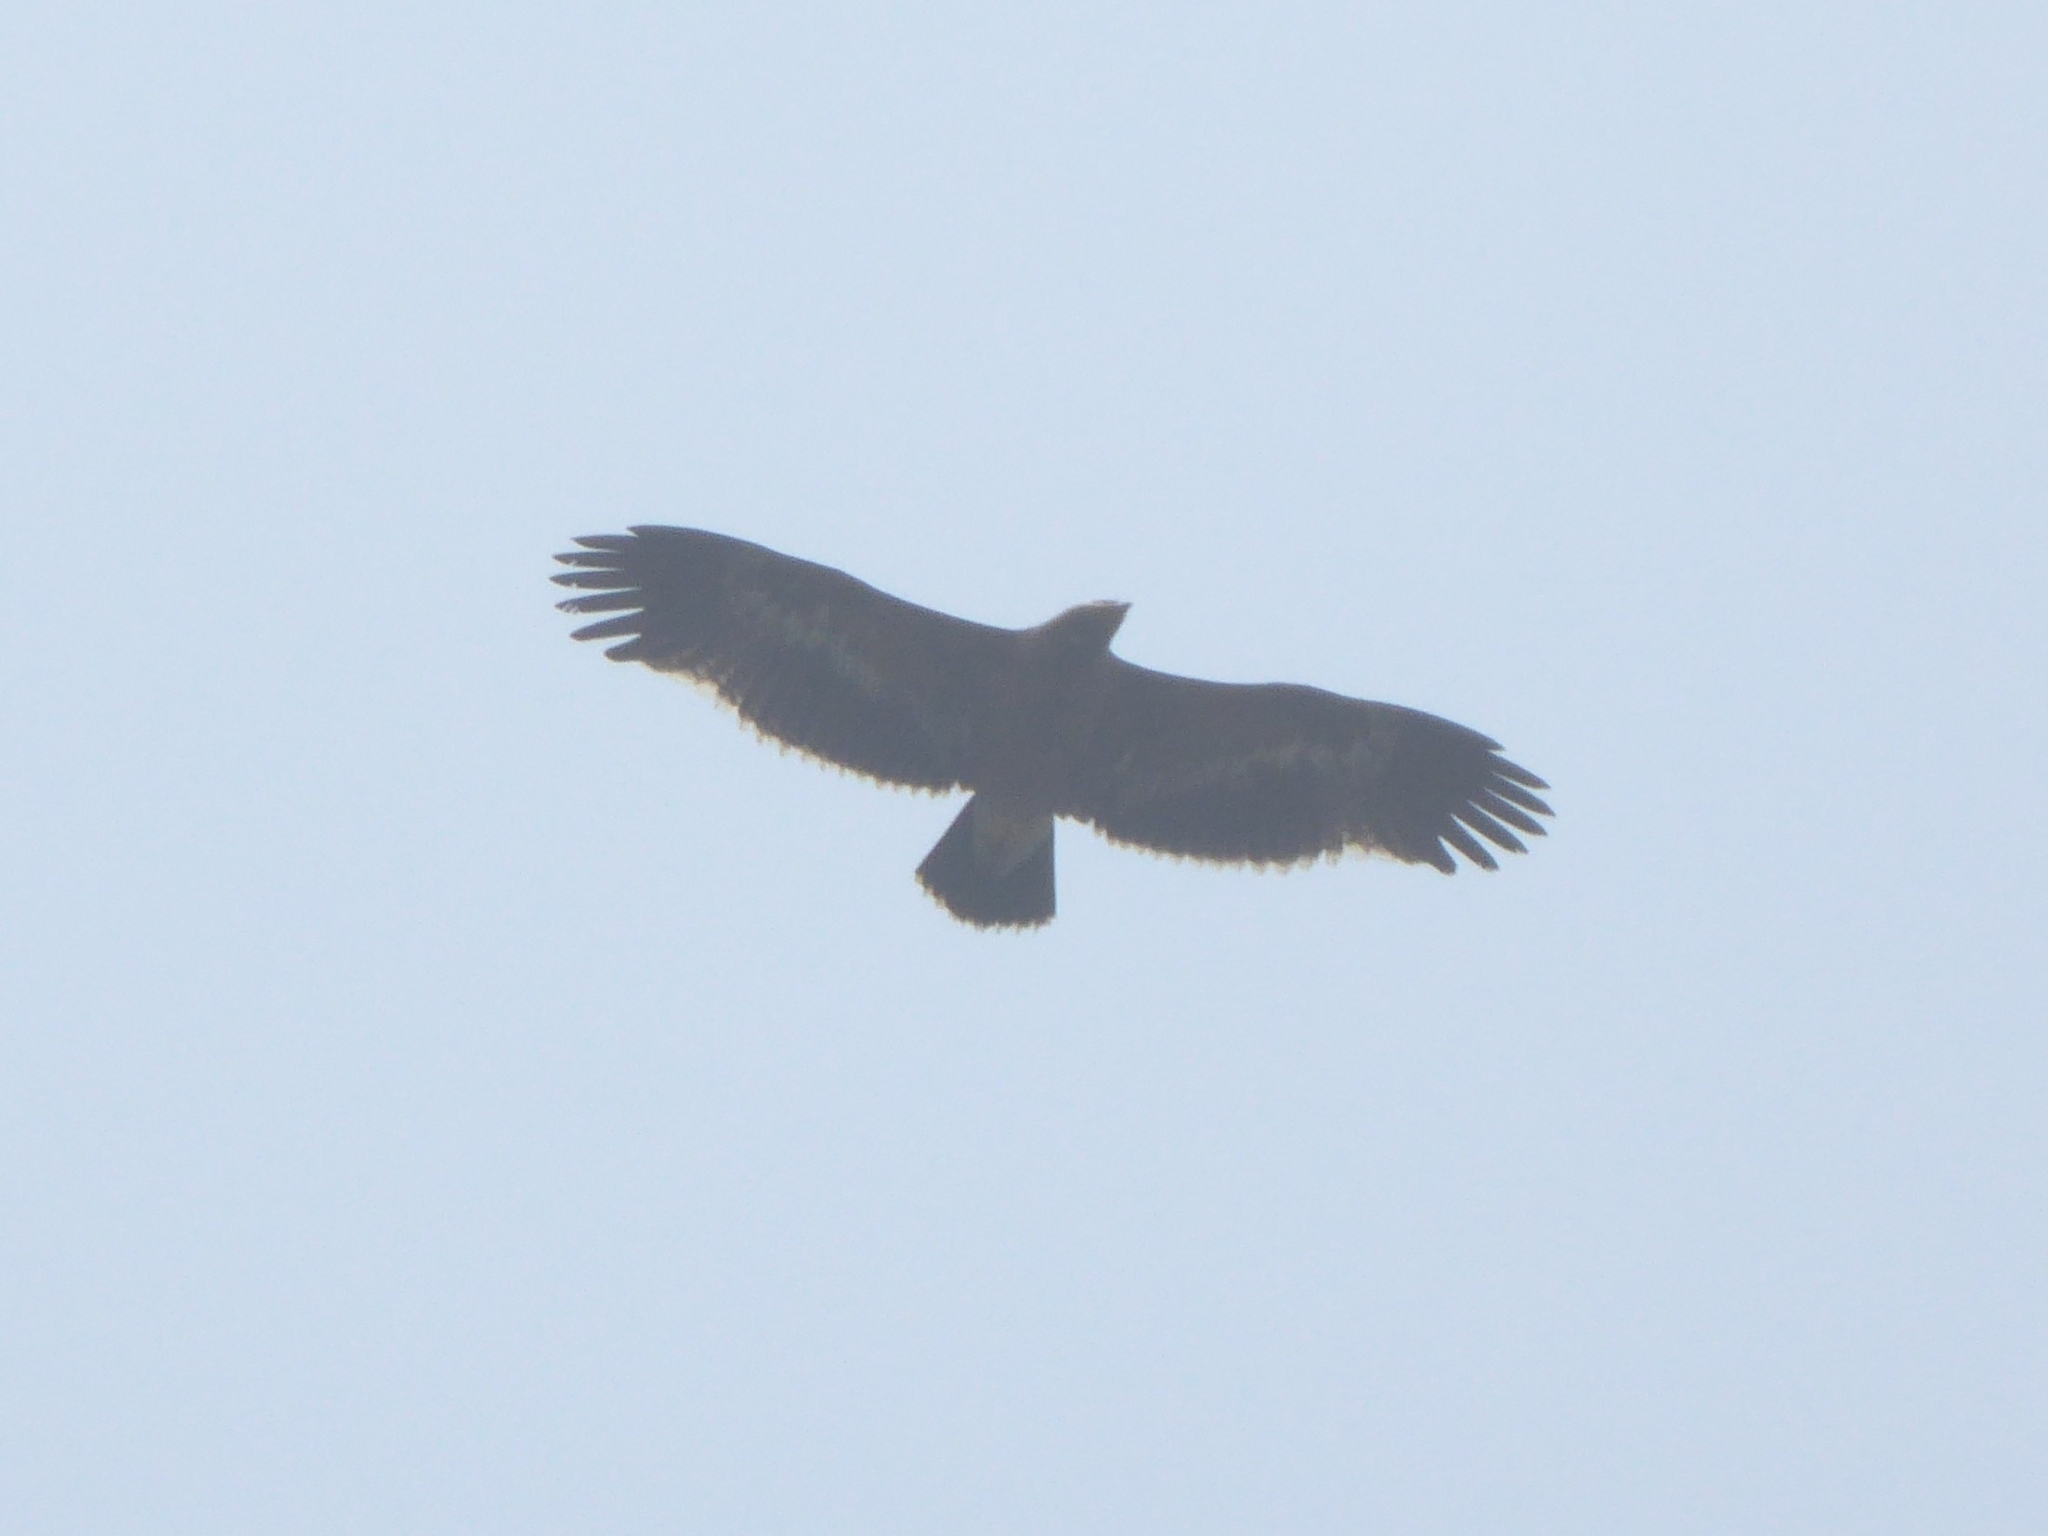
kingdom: Animalia
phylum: Chordata
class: Aves
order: Accipitriformes
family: Accipitridae
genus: Aquila
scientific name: Aquila nipalensis
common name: Steppe eagle
